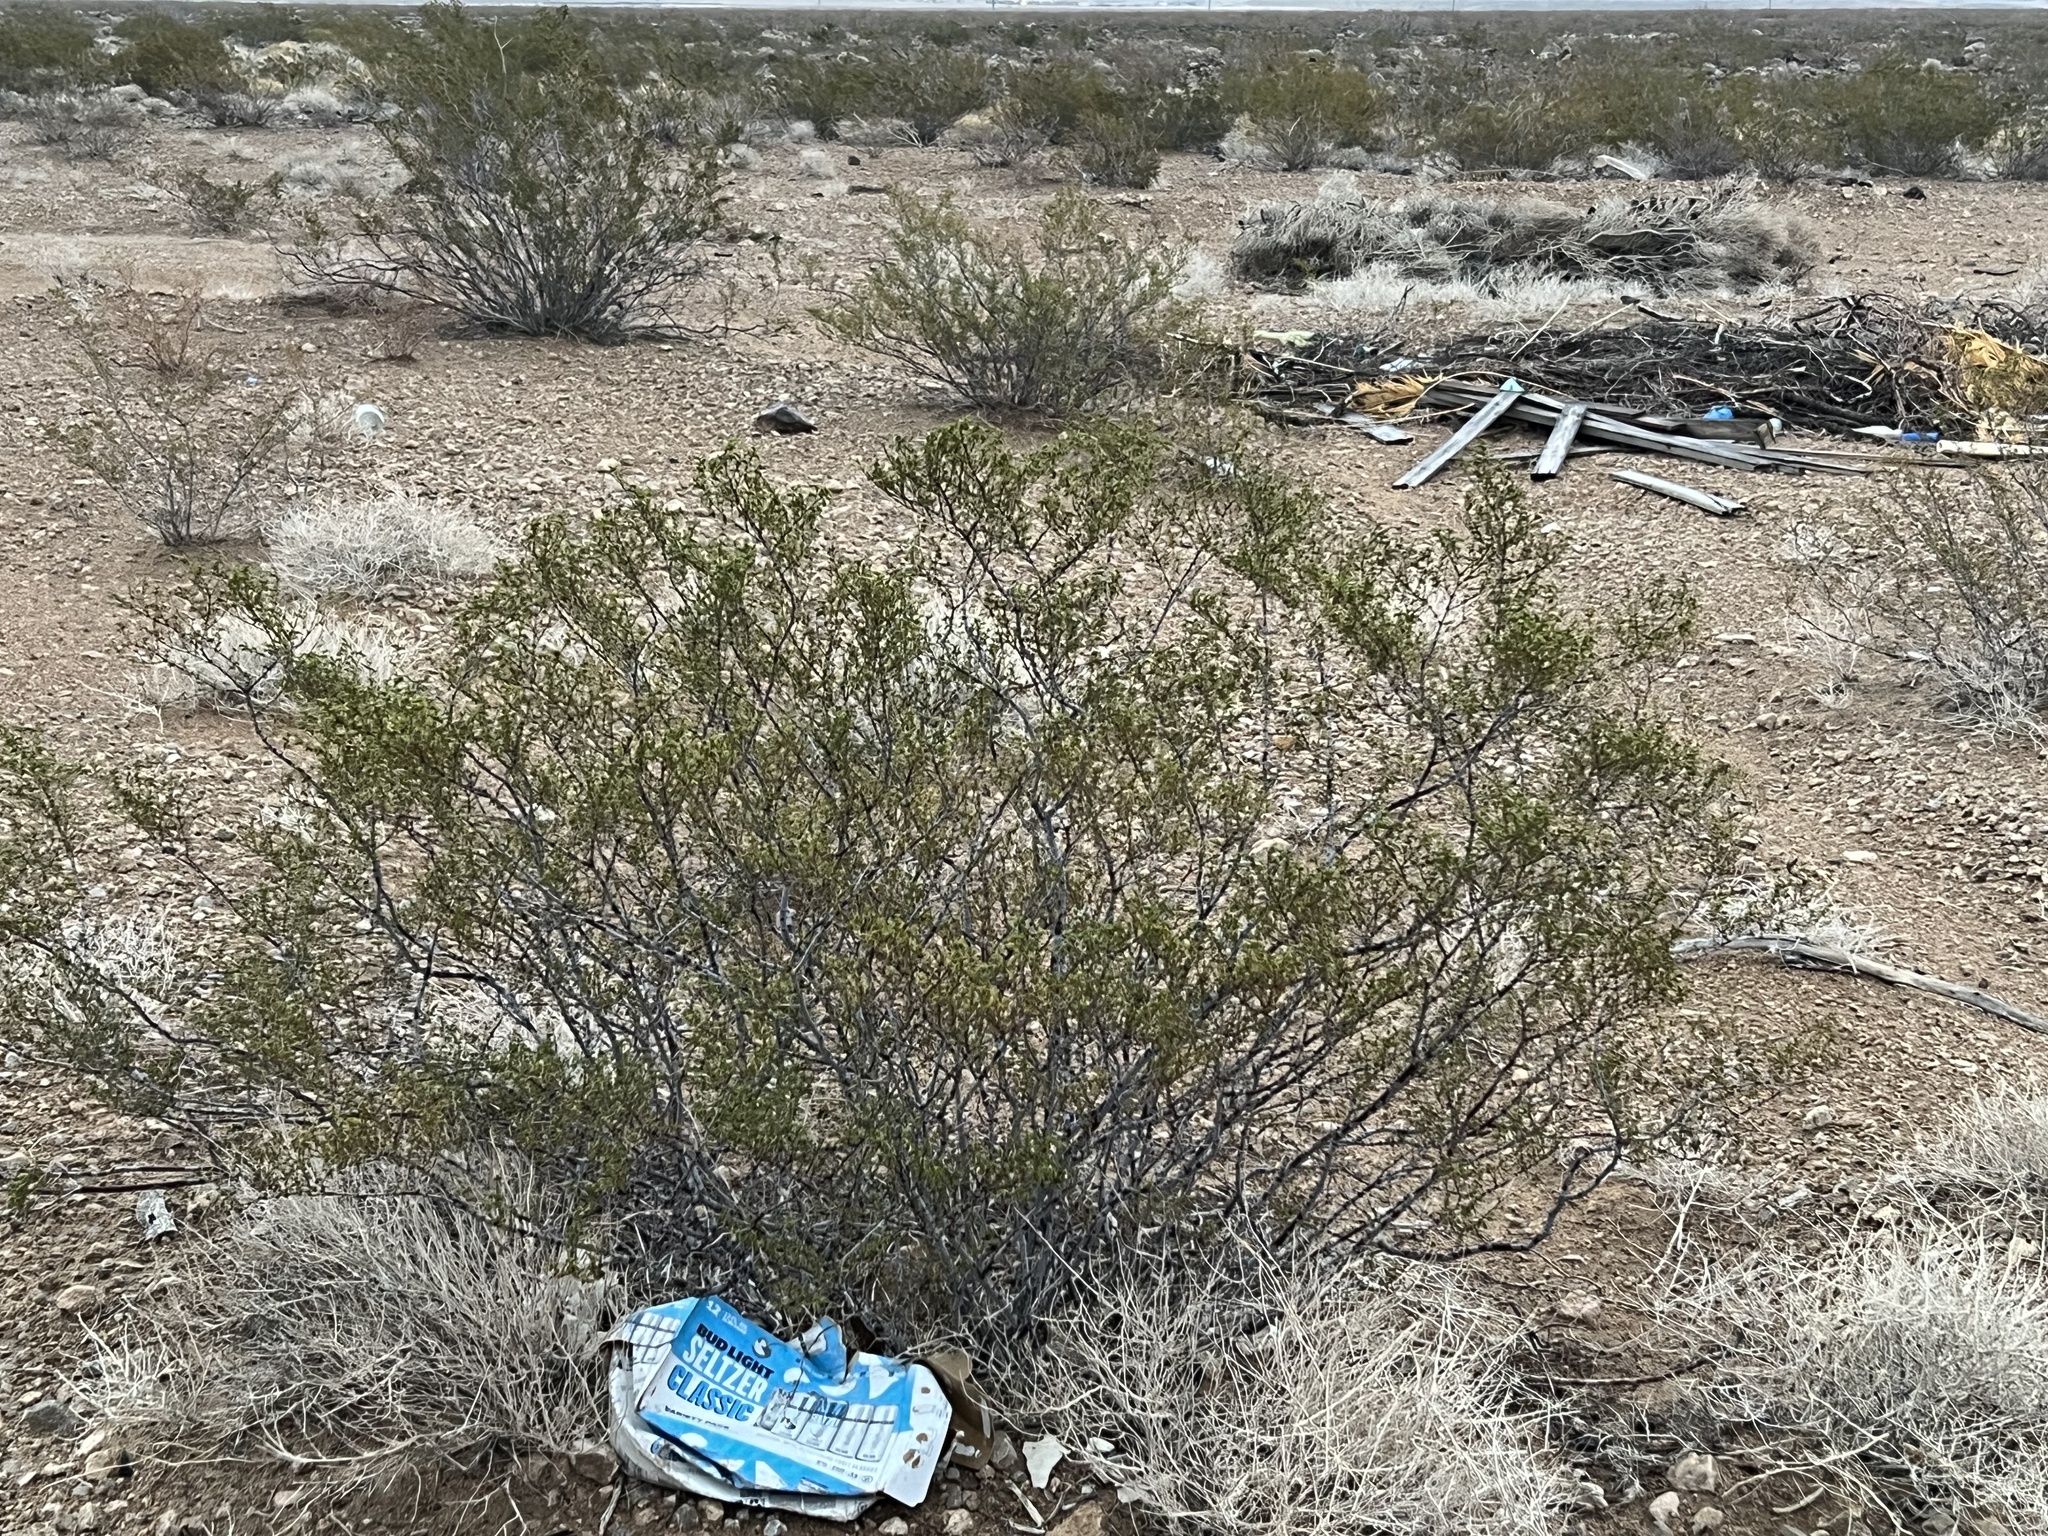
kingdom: Plantae
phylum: Tracheophyta
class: Magnoliopsida
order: Zygophyllales
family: Zygophyllaceae
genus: Larrea
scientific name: Larrea tridentata
